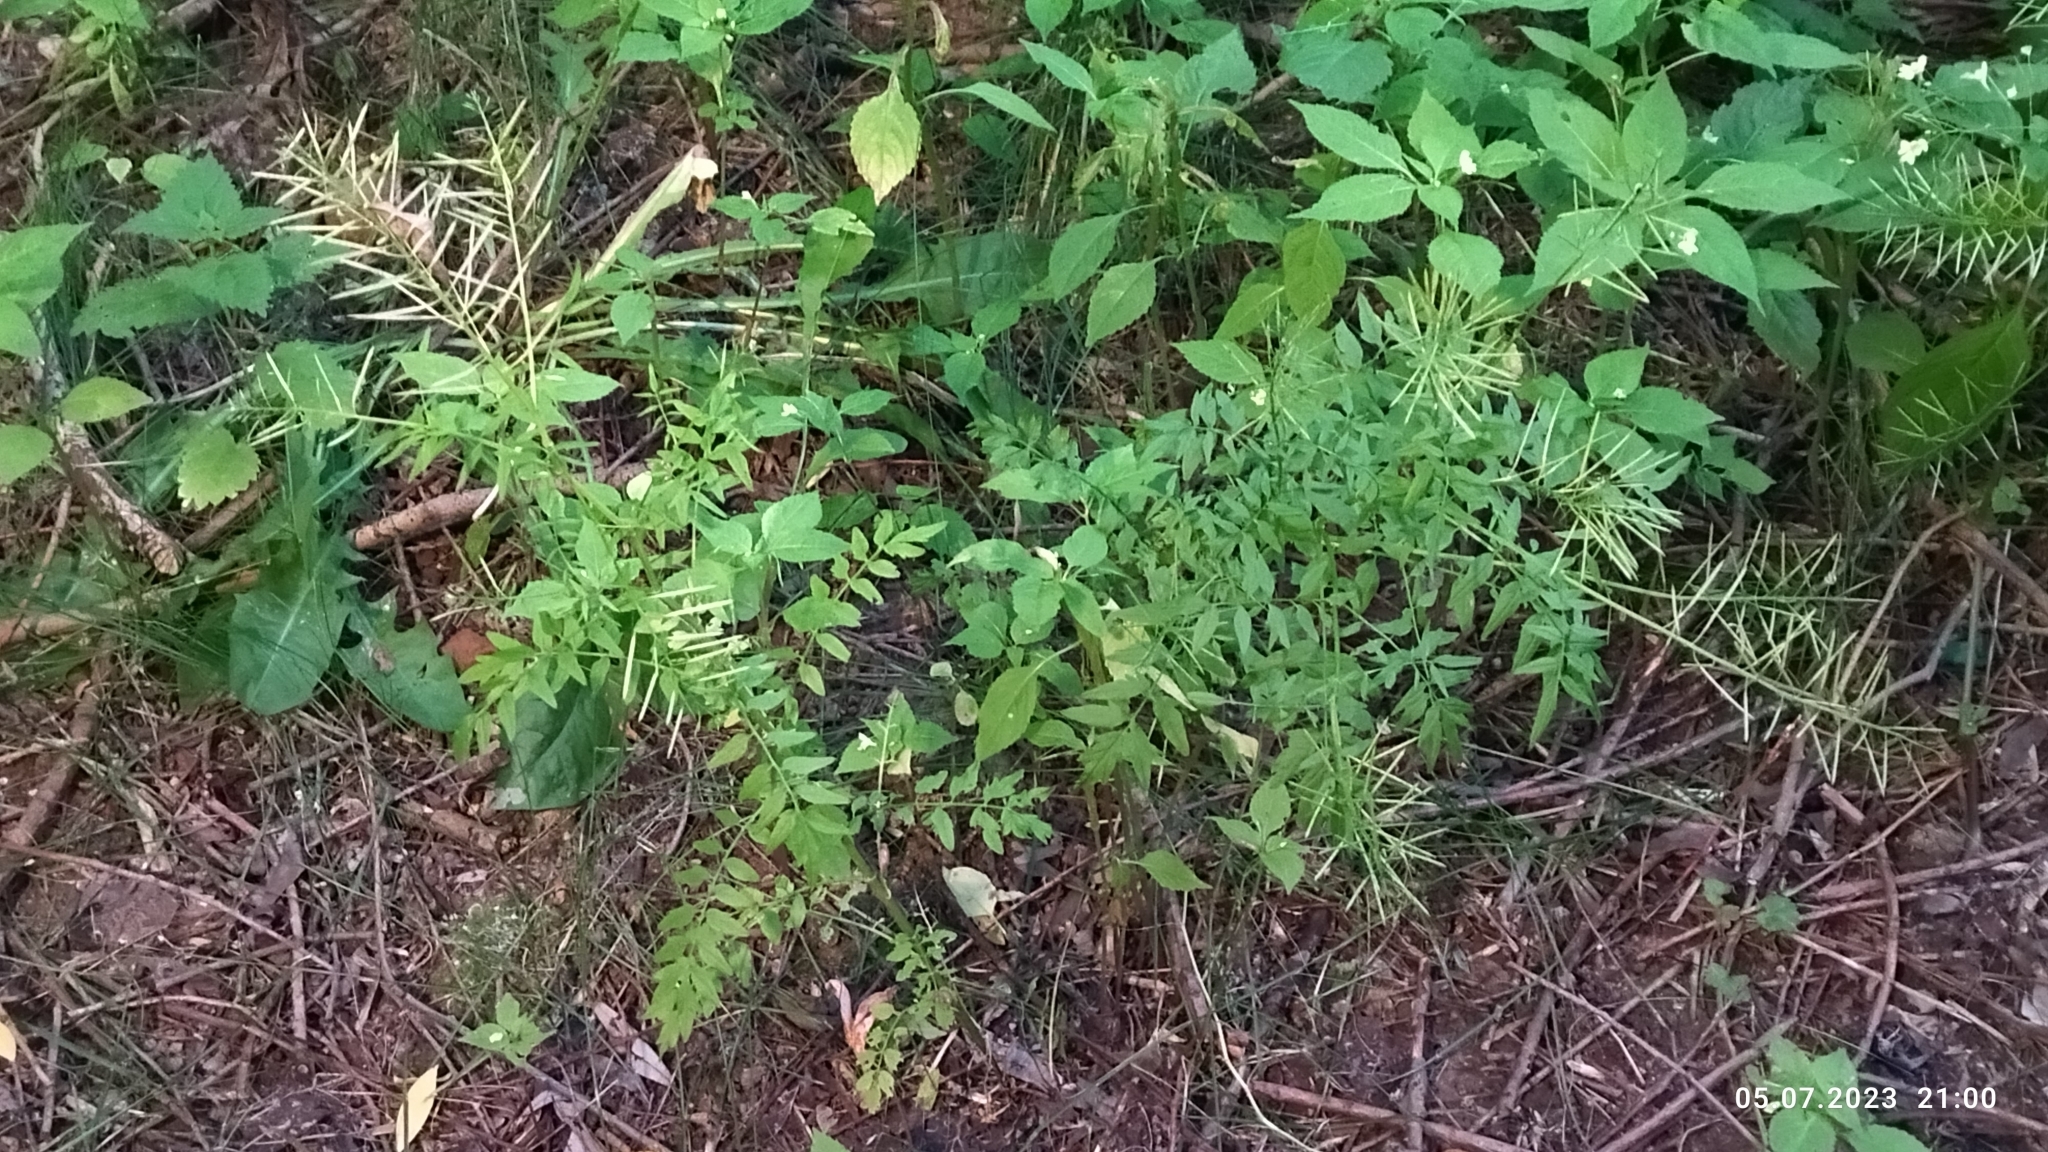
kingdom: Plantae
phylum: Tracheophyta
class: Magnoliopsida
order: Brassicales
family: Brassicaceae
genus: Cardamine
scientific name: Cardamine impatiens
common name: Narrow-leaved bitter-cress
